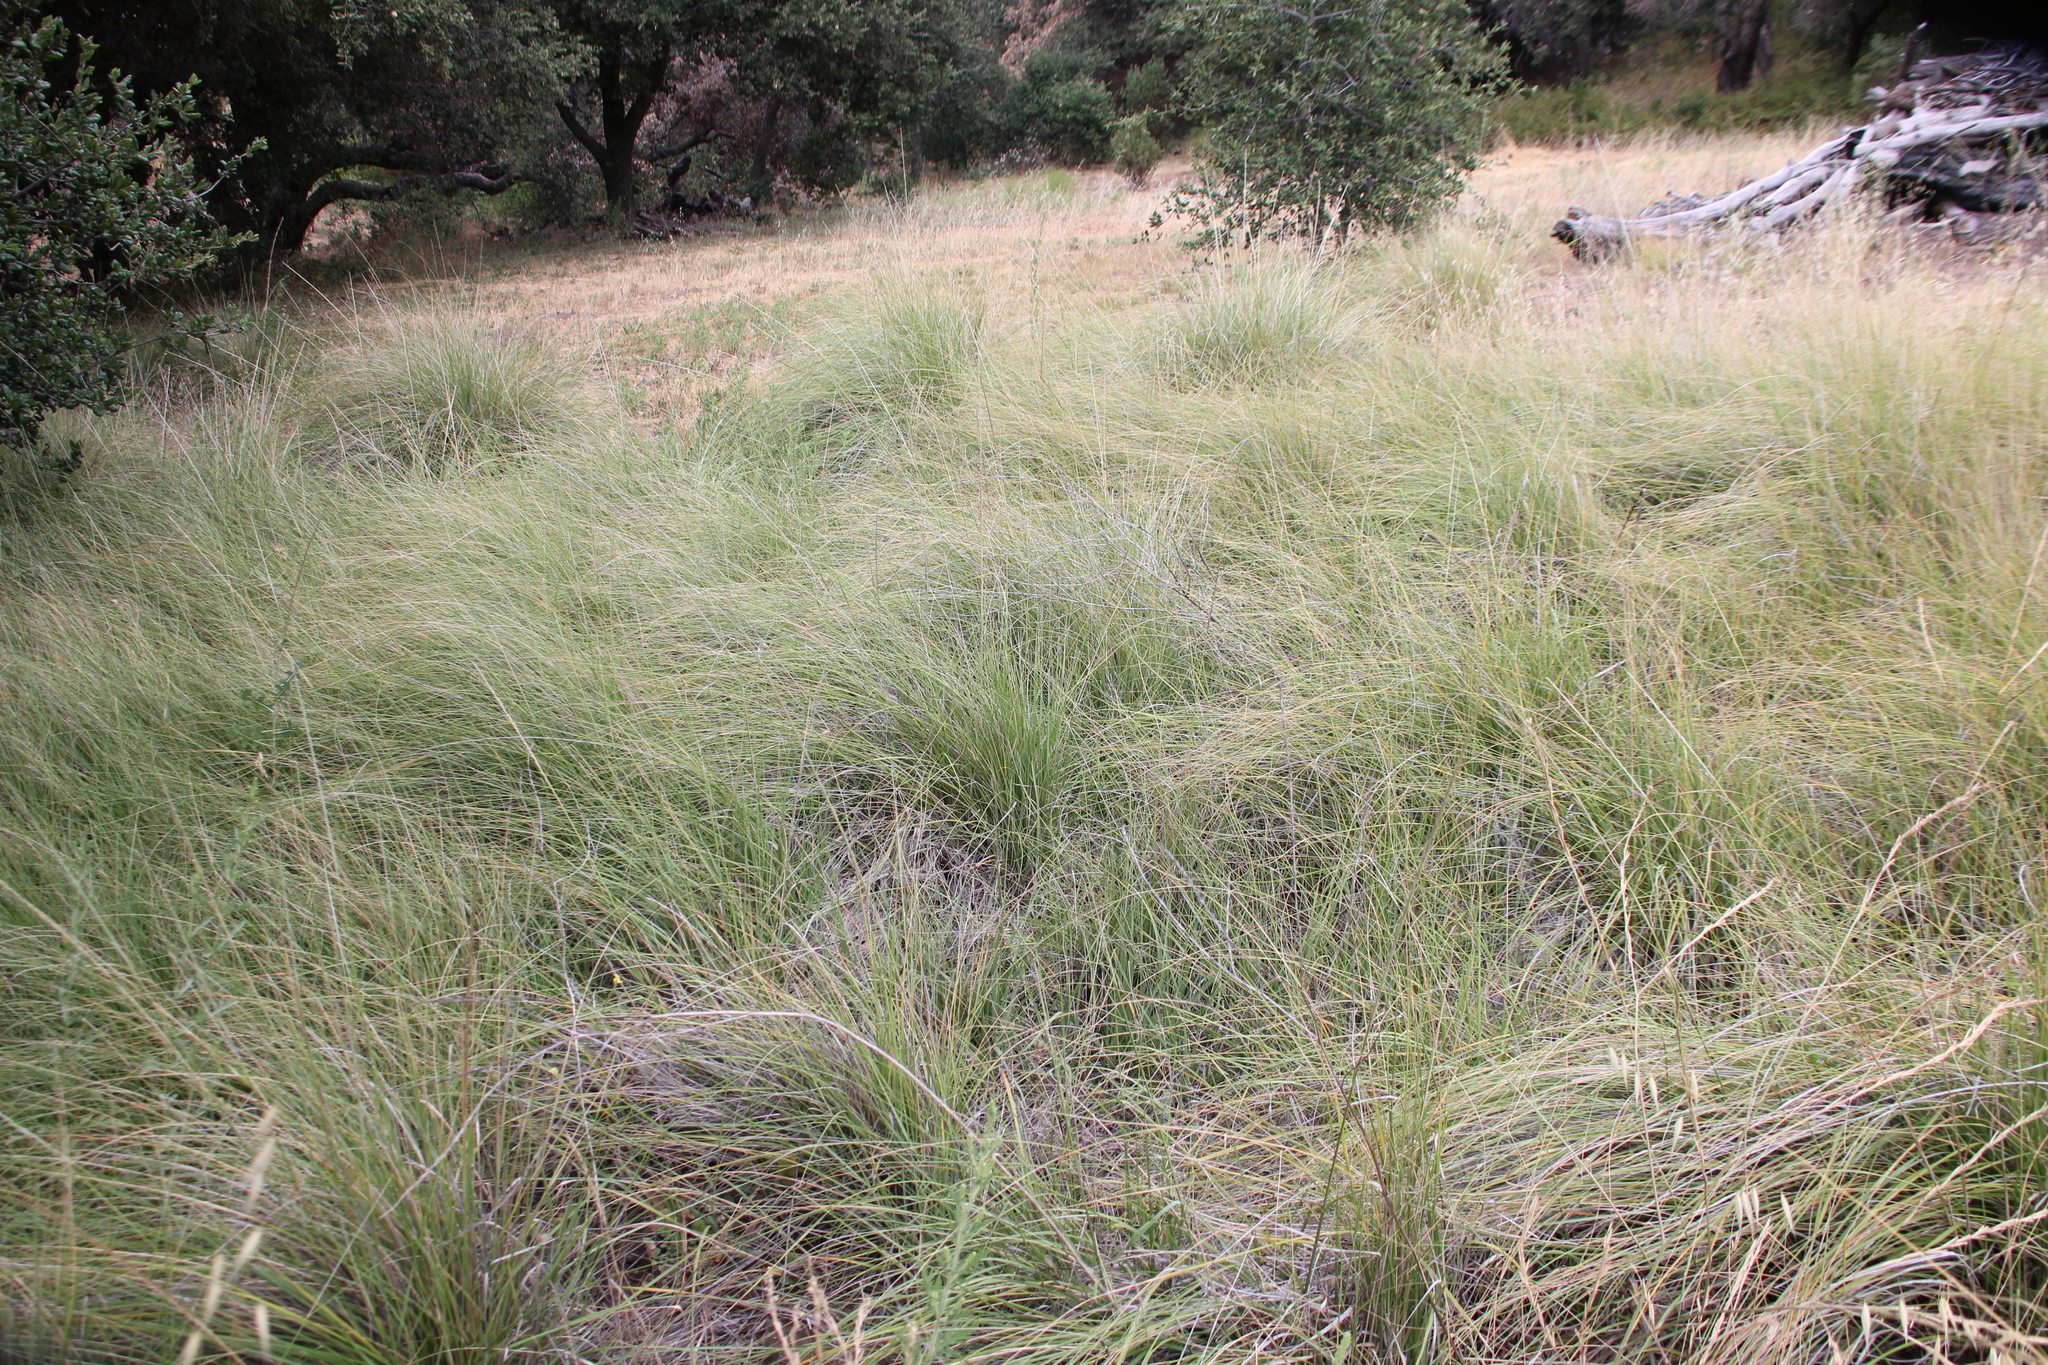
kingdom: Plantae
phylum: Tracheophyta
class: Liliopsida
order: Poales
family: Poaceae
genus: Muhlenbergia
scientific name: Muhlenbergia rigens
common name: Deer grass
